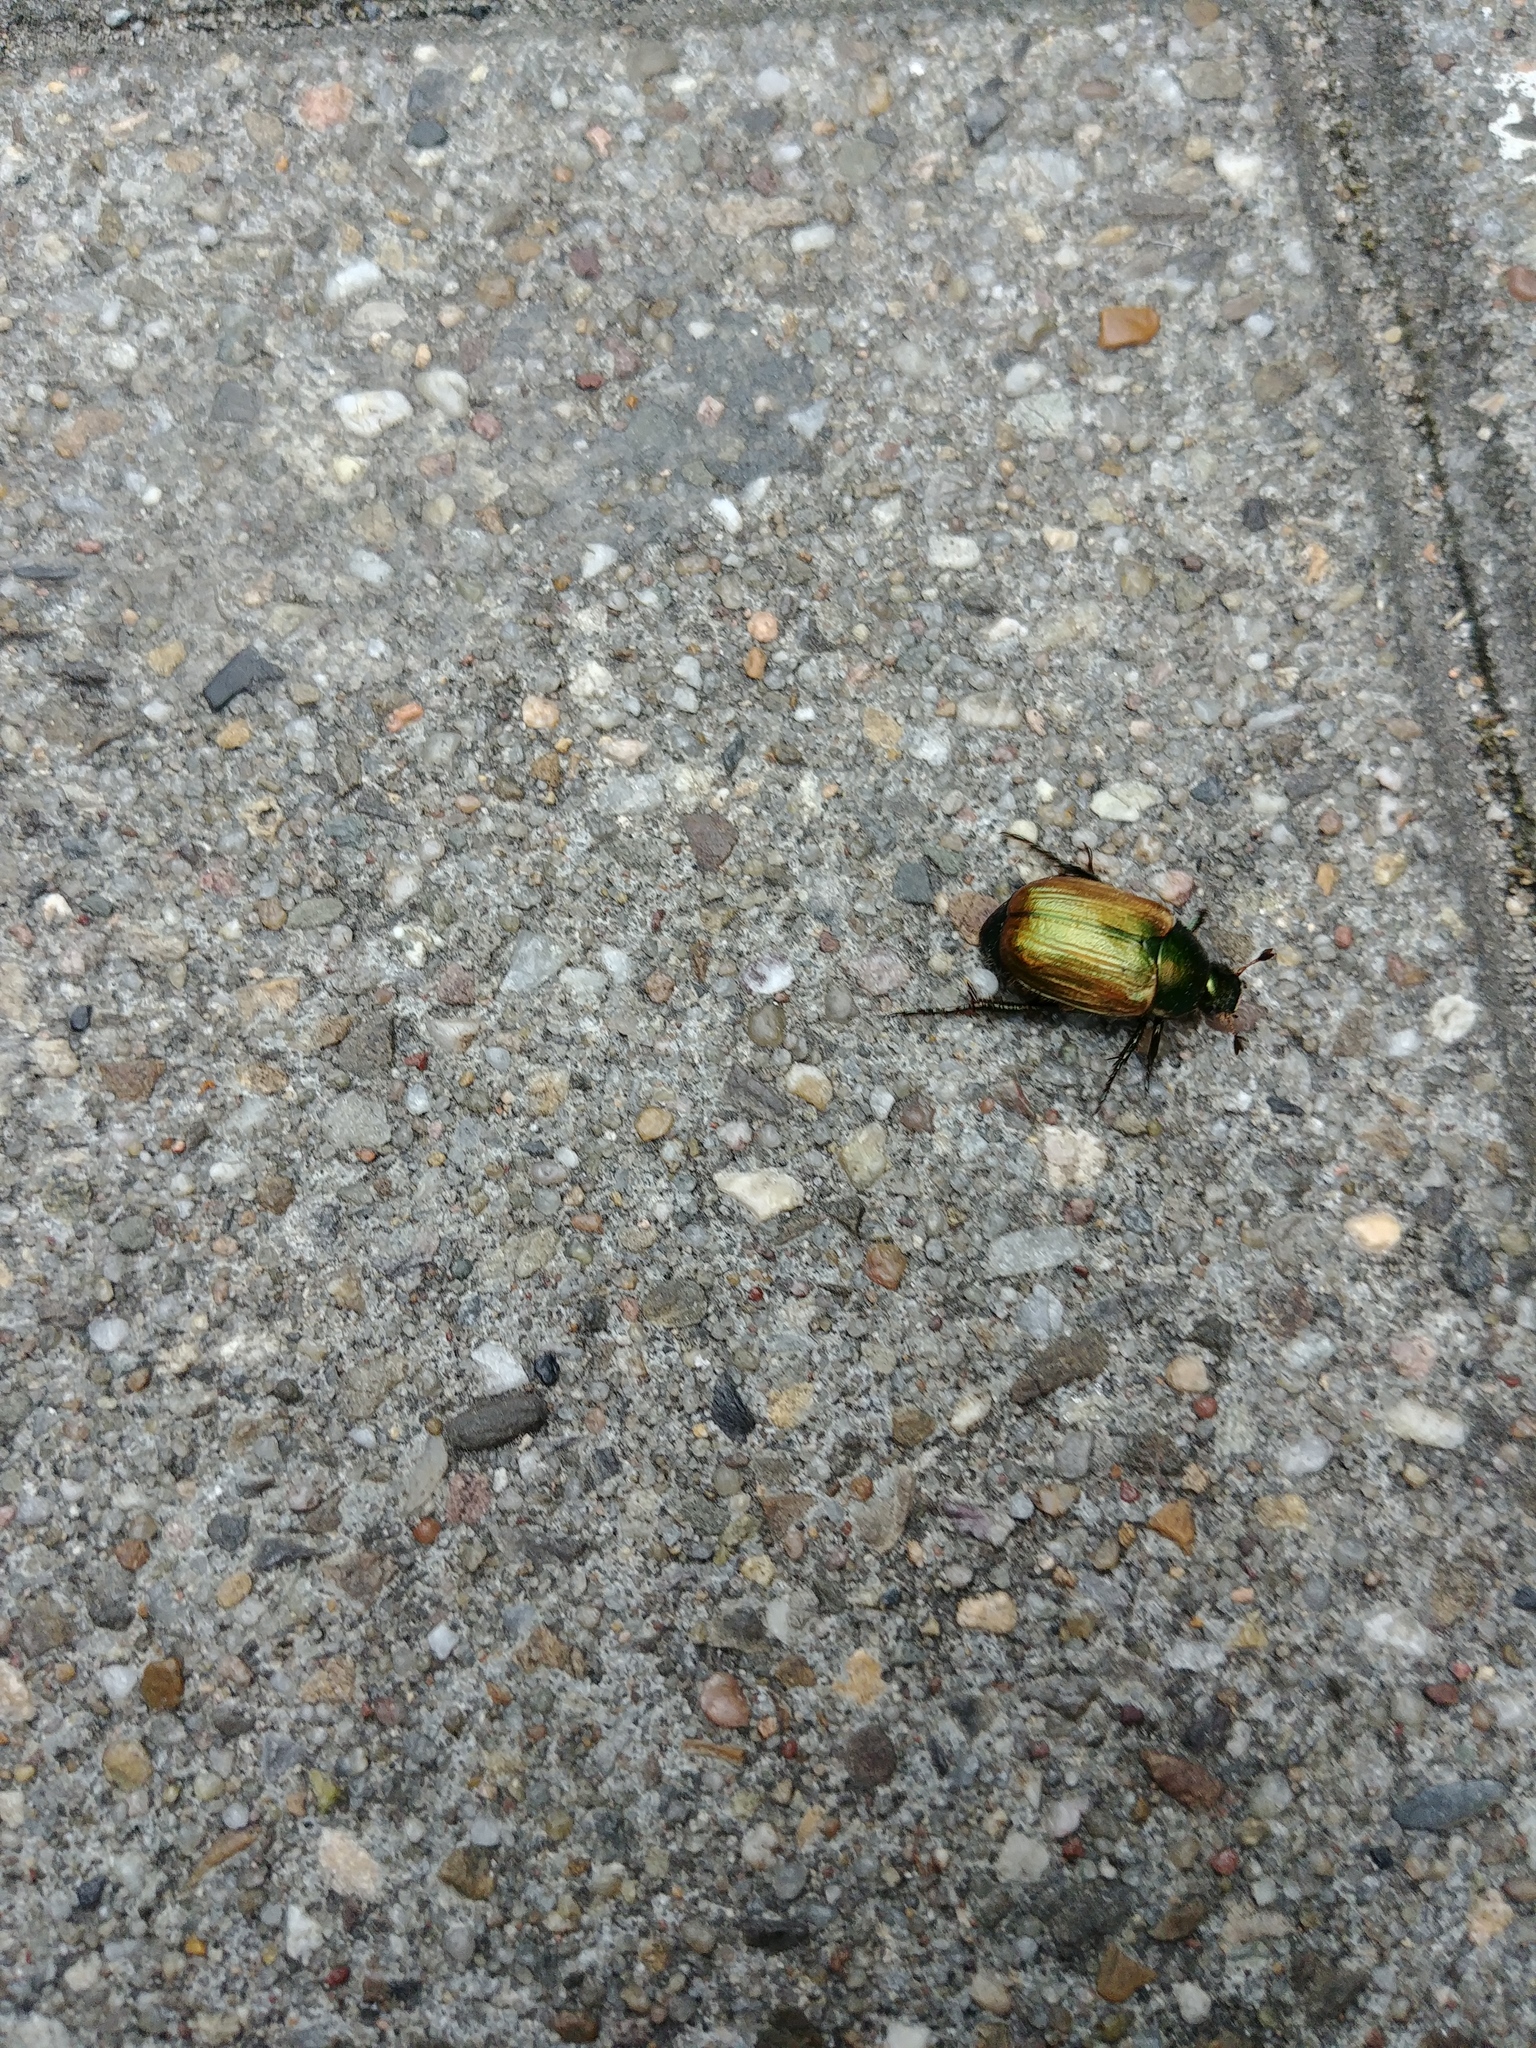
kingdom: Animalia
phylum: Arthropoda
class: Insecta
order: Coleoptera
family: Scarabaeidae
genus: Anomala
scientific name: Anomala dubia
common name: Dune chafer
